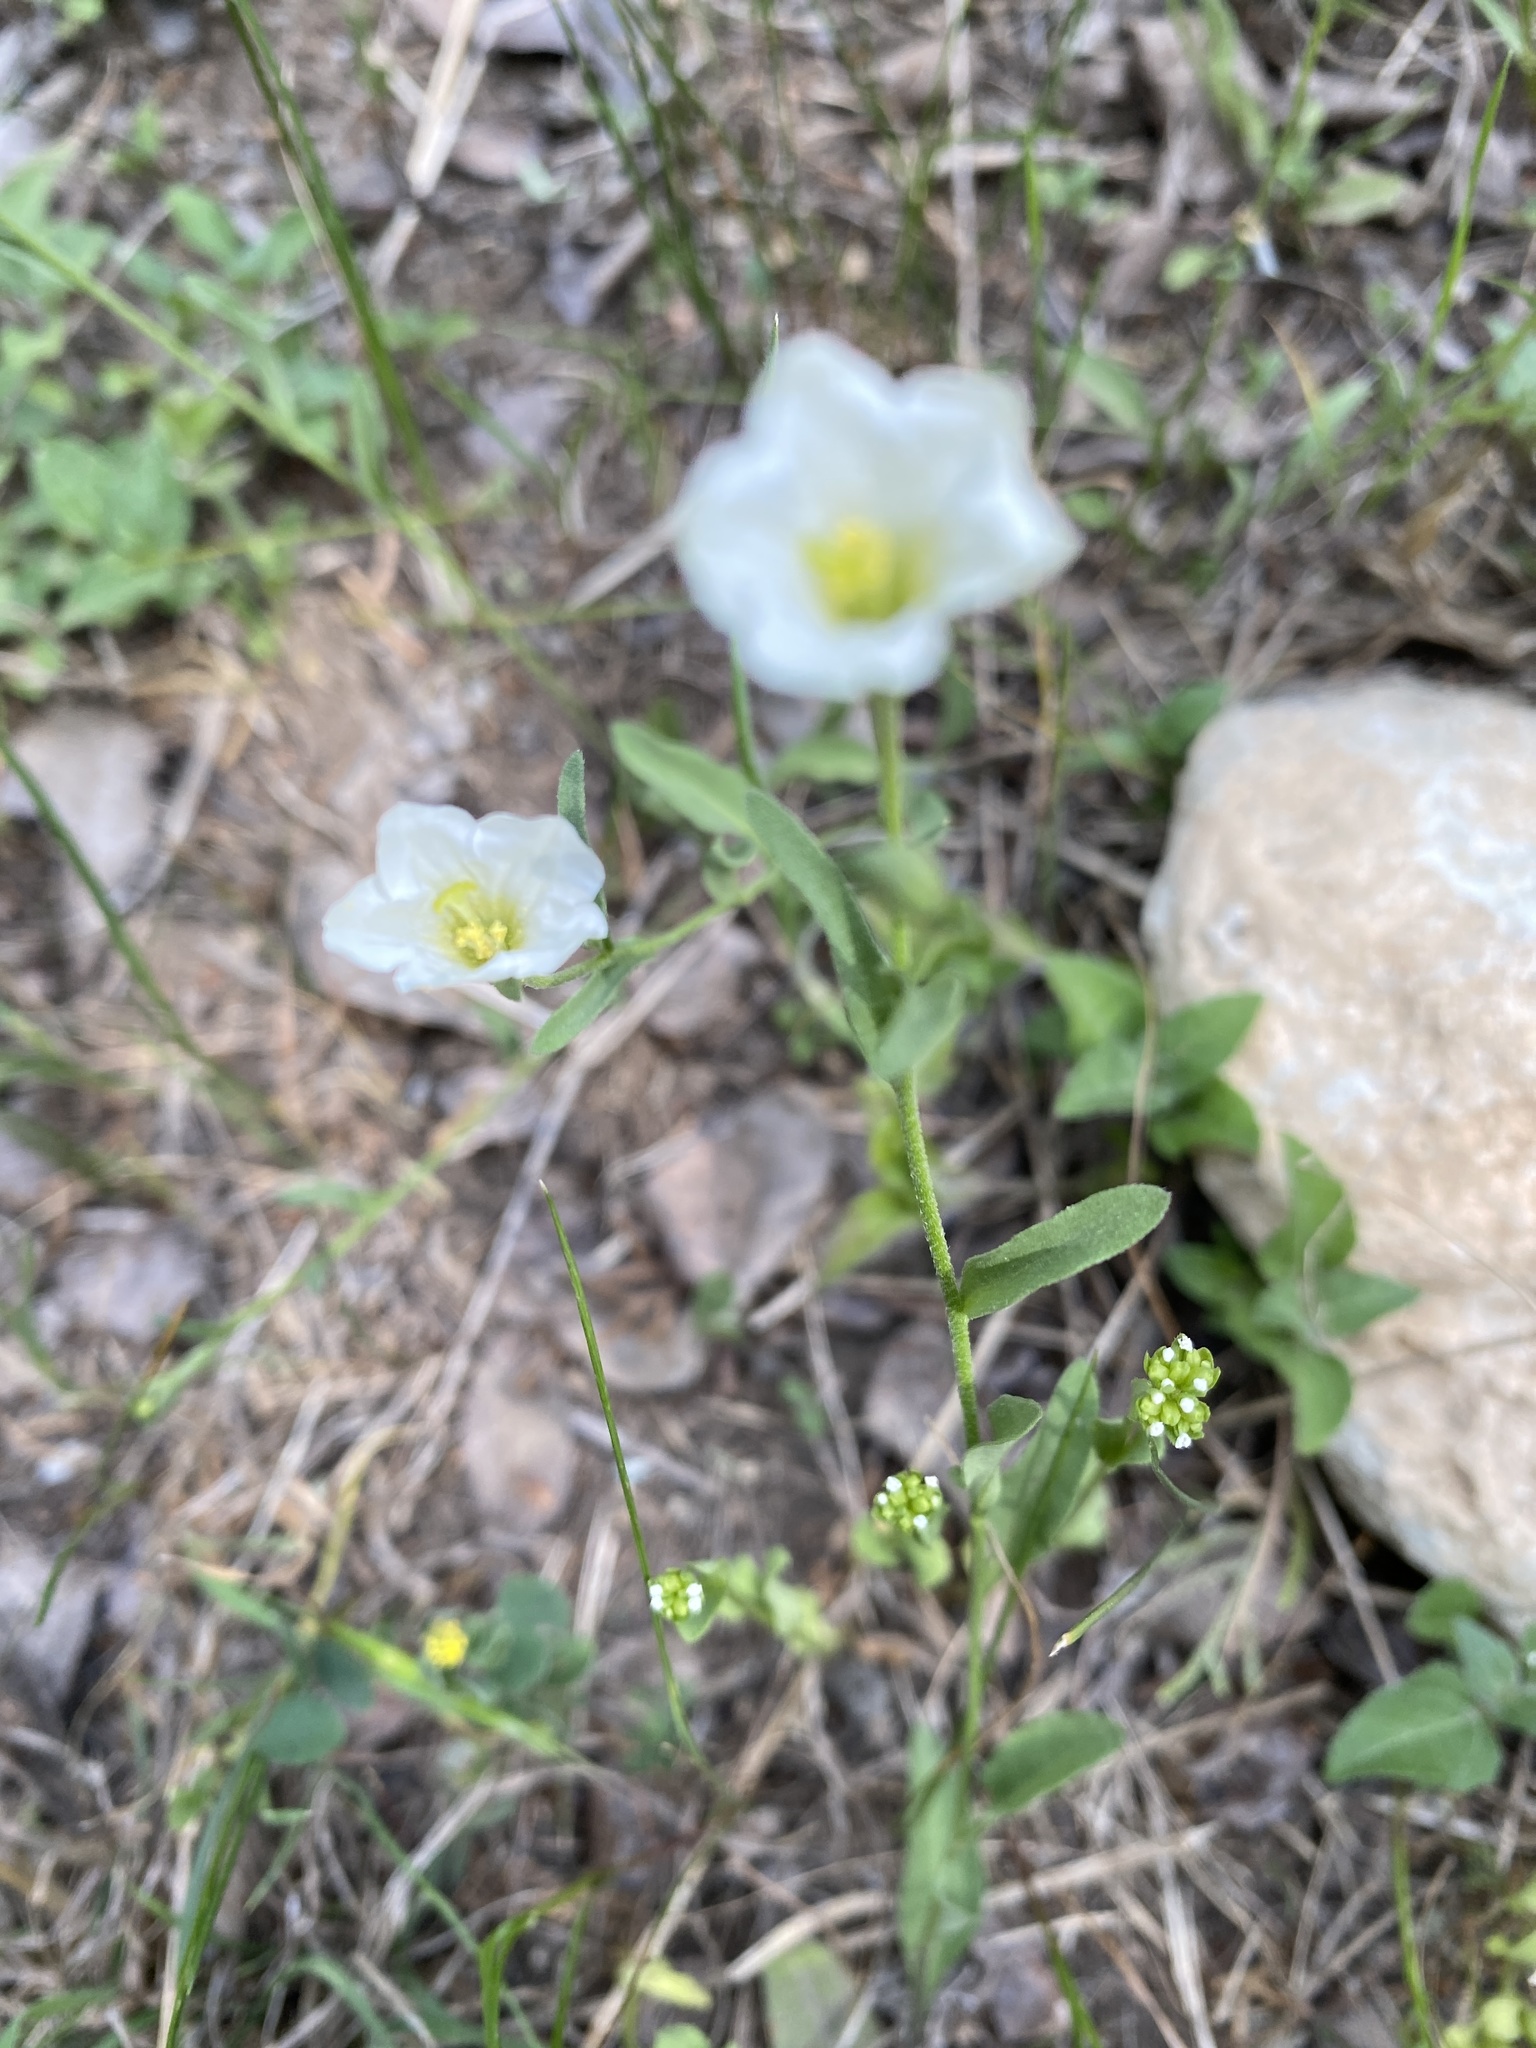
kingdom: Plantae
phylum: Tracheophyta
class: Magnoliopsida
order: Solanales
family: Solanaceae
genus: Salpiglossis
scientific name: Salpiglossis erecta
